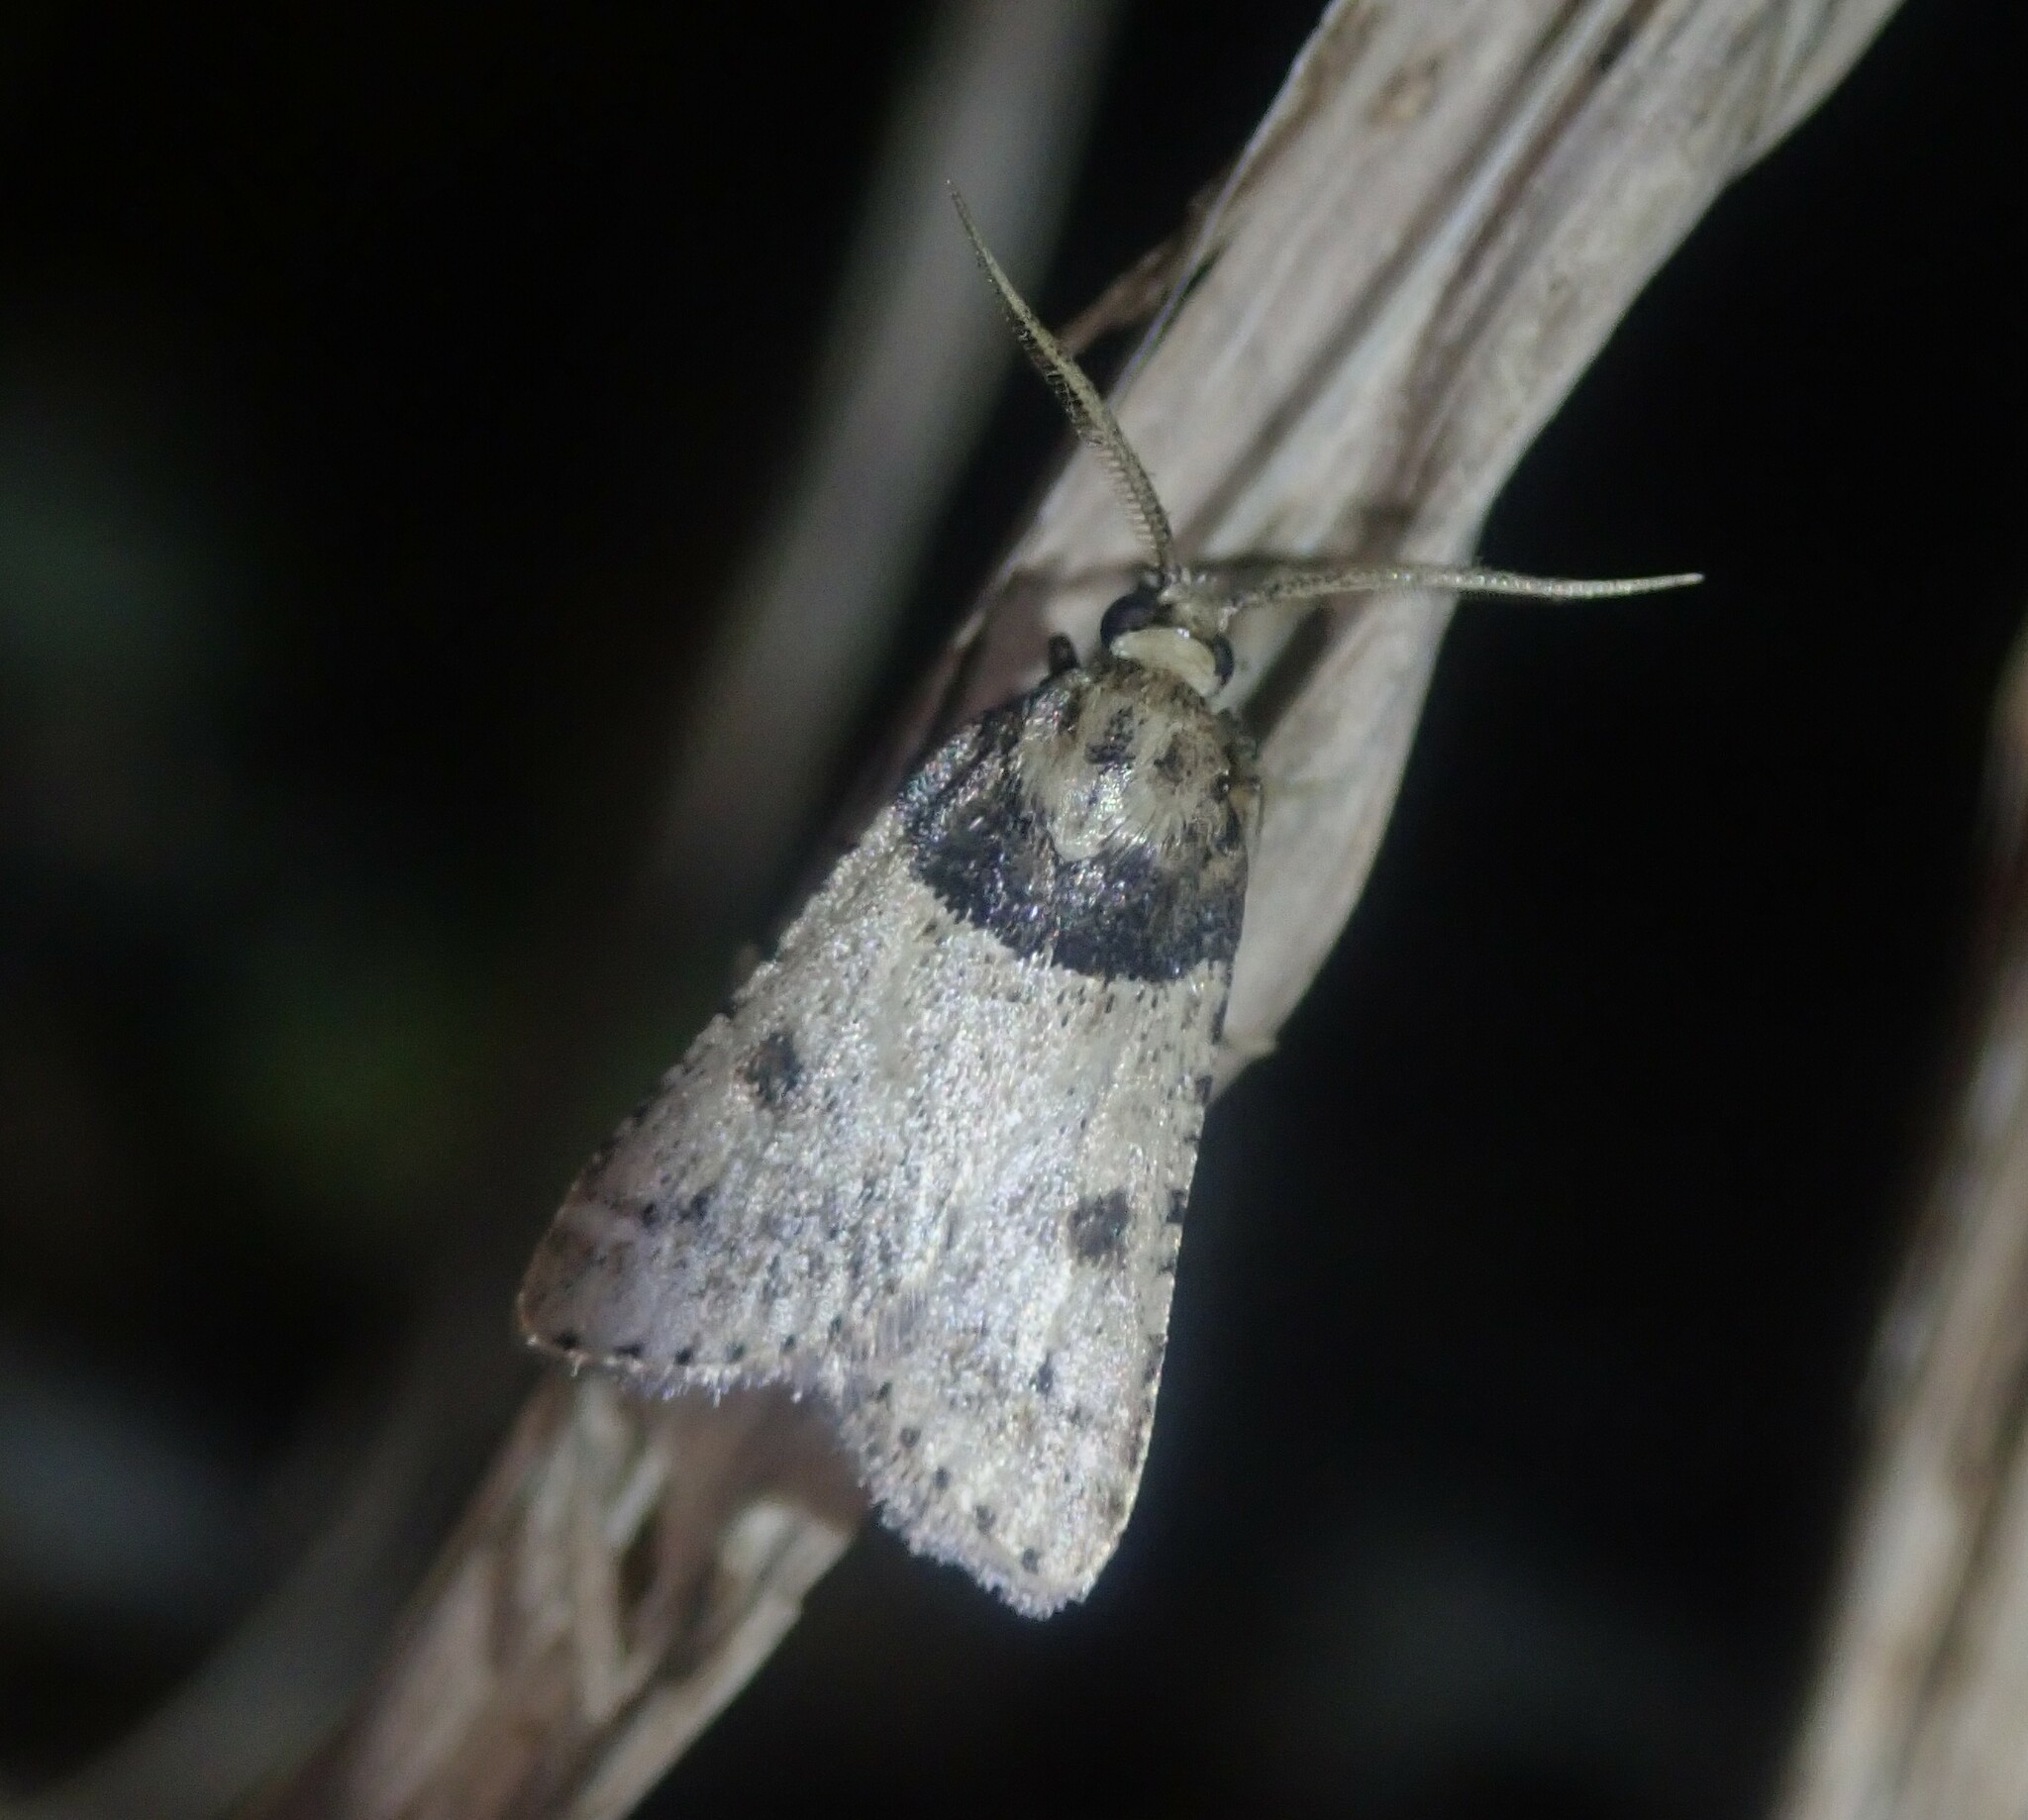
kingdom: Animalia
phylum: Arthropoda
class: Insecta
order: Lepidoptera
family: Pyralidae
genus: Philotis
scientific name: Philotis basalis
